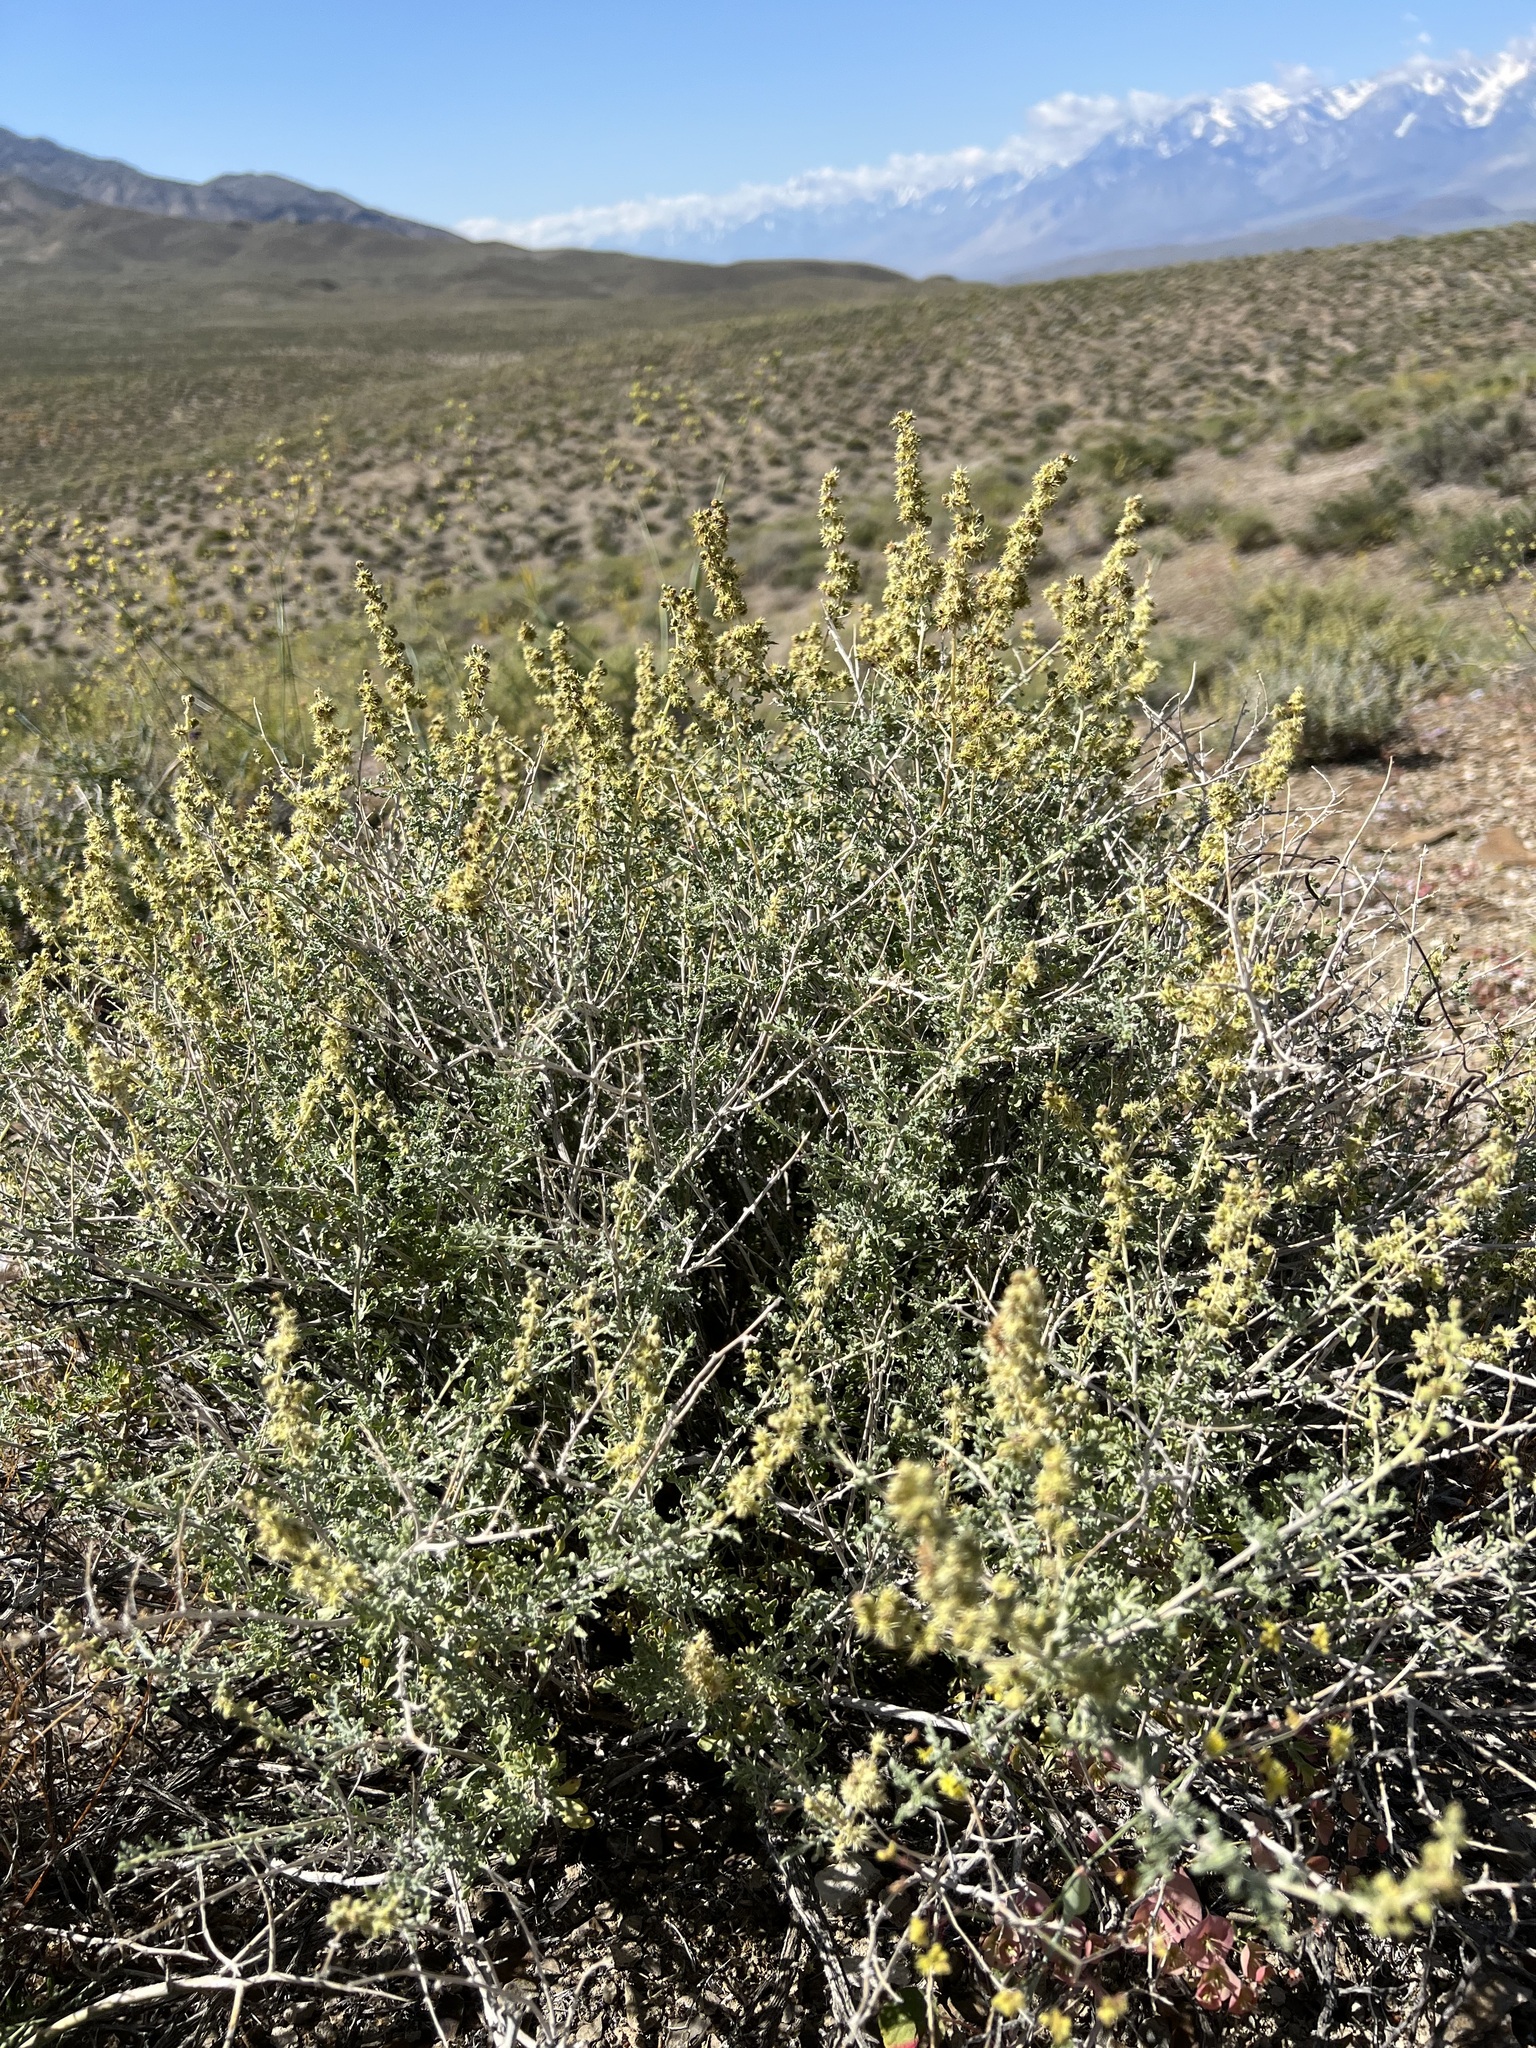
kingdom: Plantae
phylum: Tracheophyta
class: Magnoliopsida
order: Asterales
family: Asteraceae
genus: Ambrosia
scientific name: Ambrosia dumosa
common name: Bur-sage
